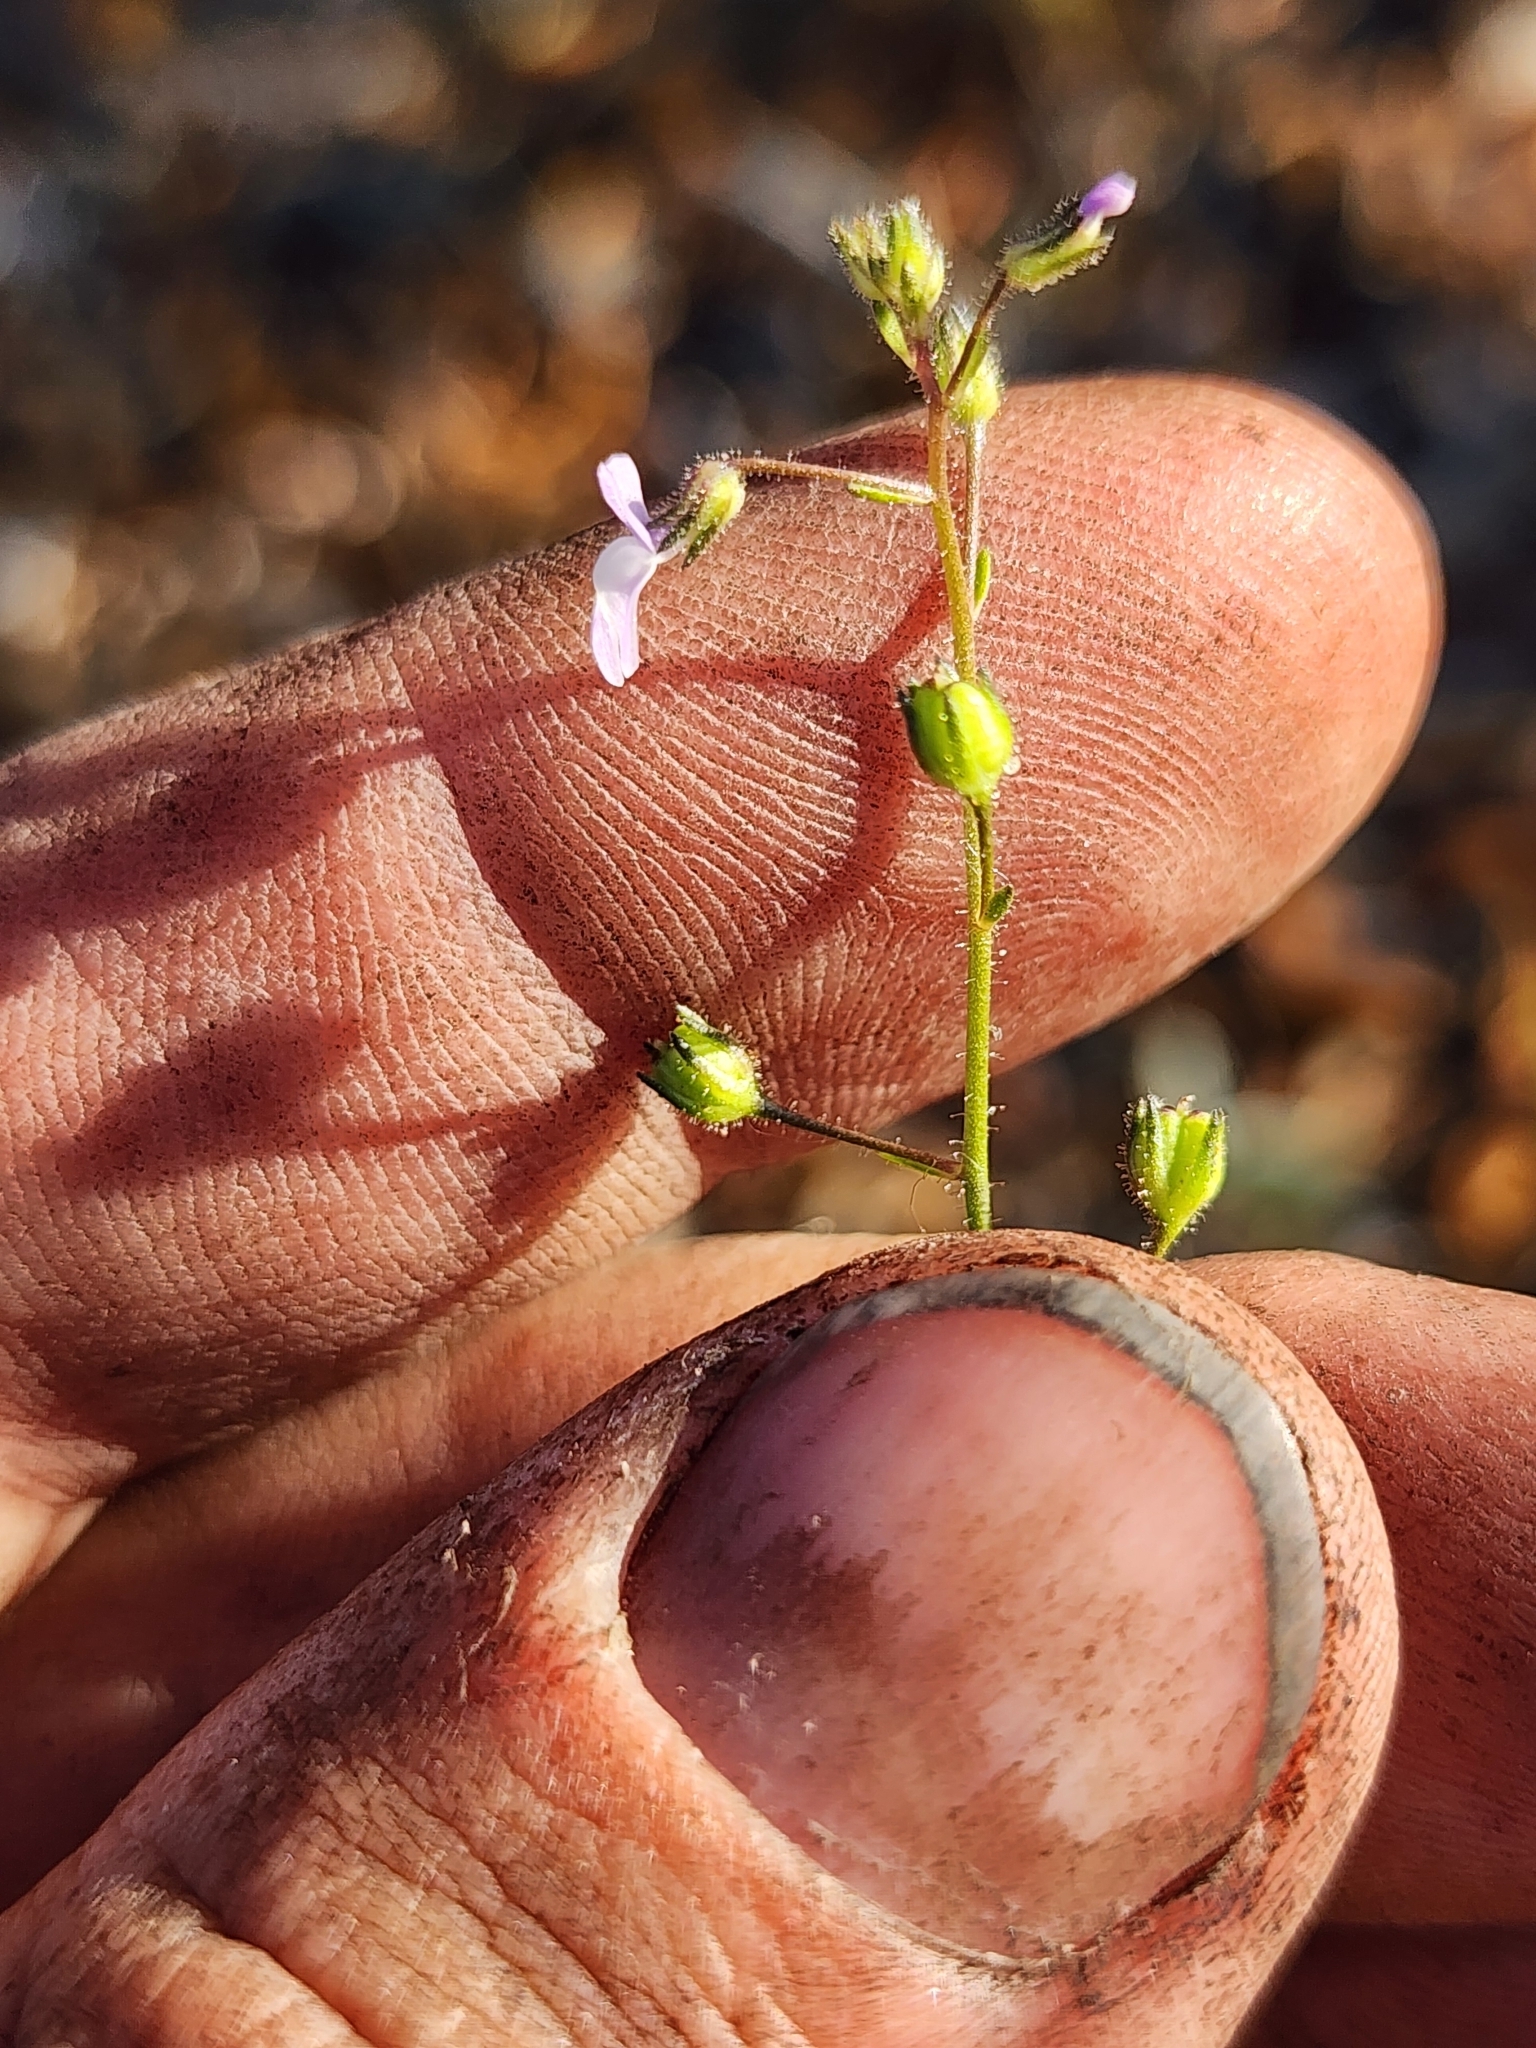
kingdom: Plantae
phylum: Tracheophyta
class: Magnoliopsida
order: Lamiales
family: Plantaginaceae
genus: Nuttallanthus
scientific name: Nuttallanthus floridanus
